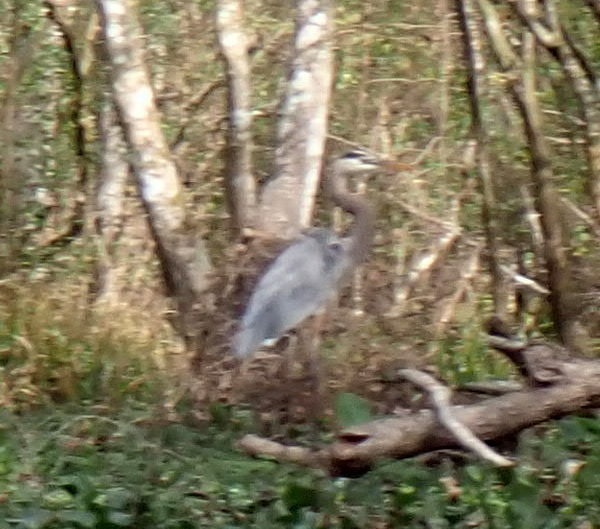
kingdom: Animalia
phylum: Chordata
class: Aves
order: Pelecaniformes
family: Ardeidae
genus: Ardea
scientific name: Ardea herodias
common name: Great blue heron
